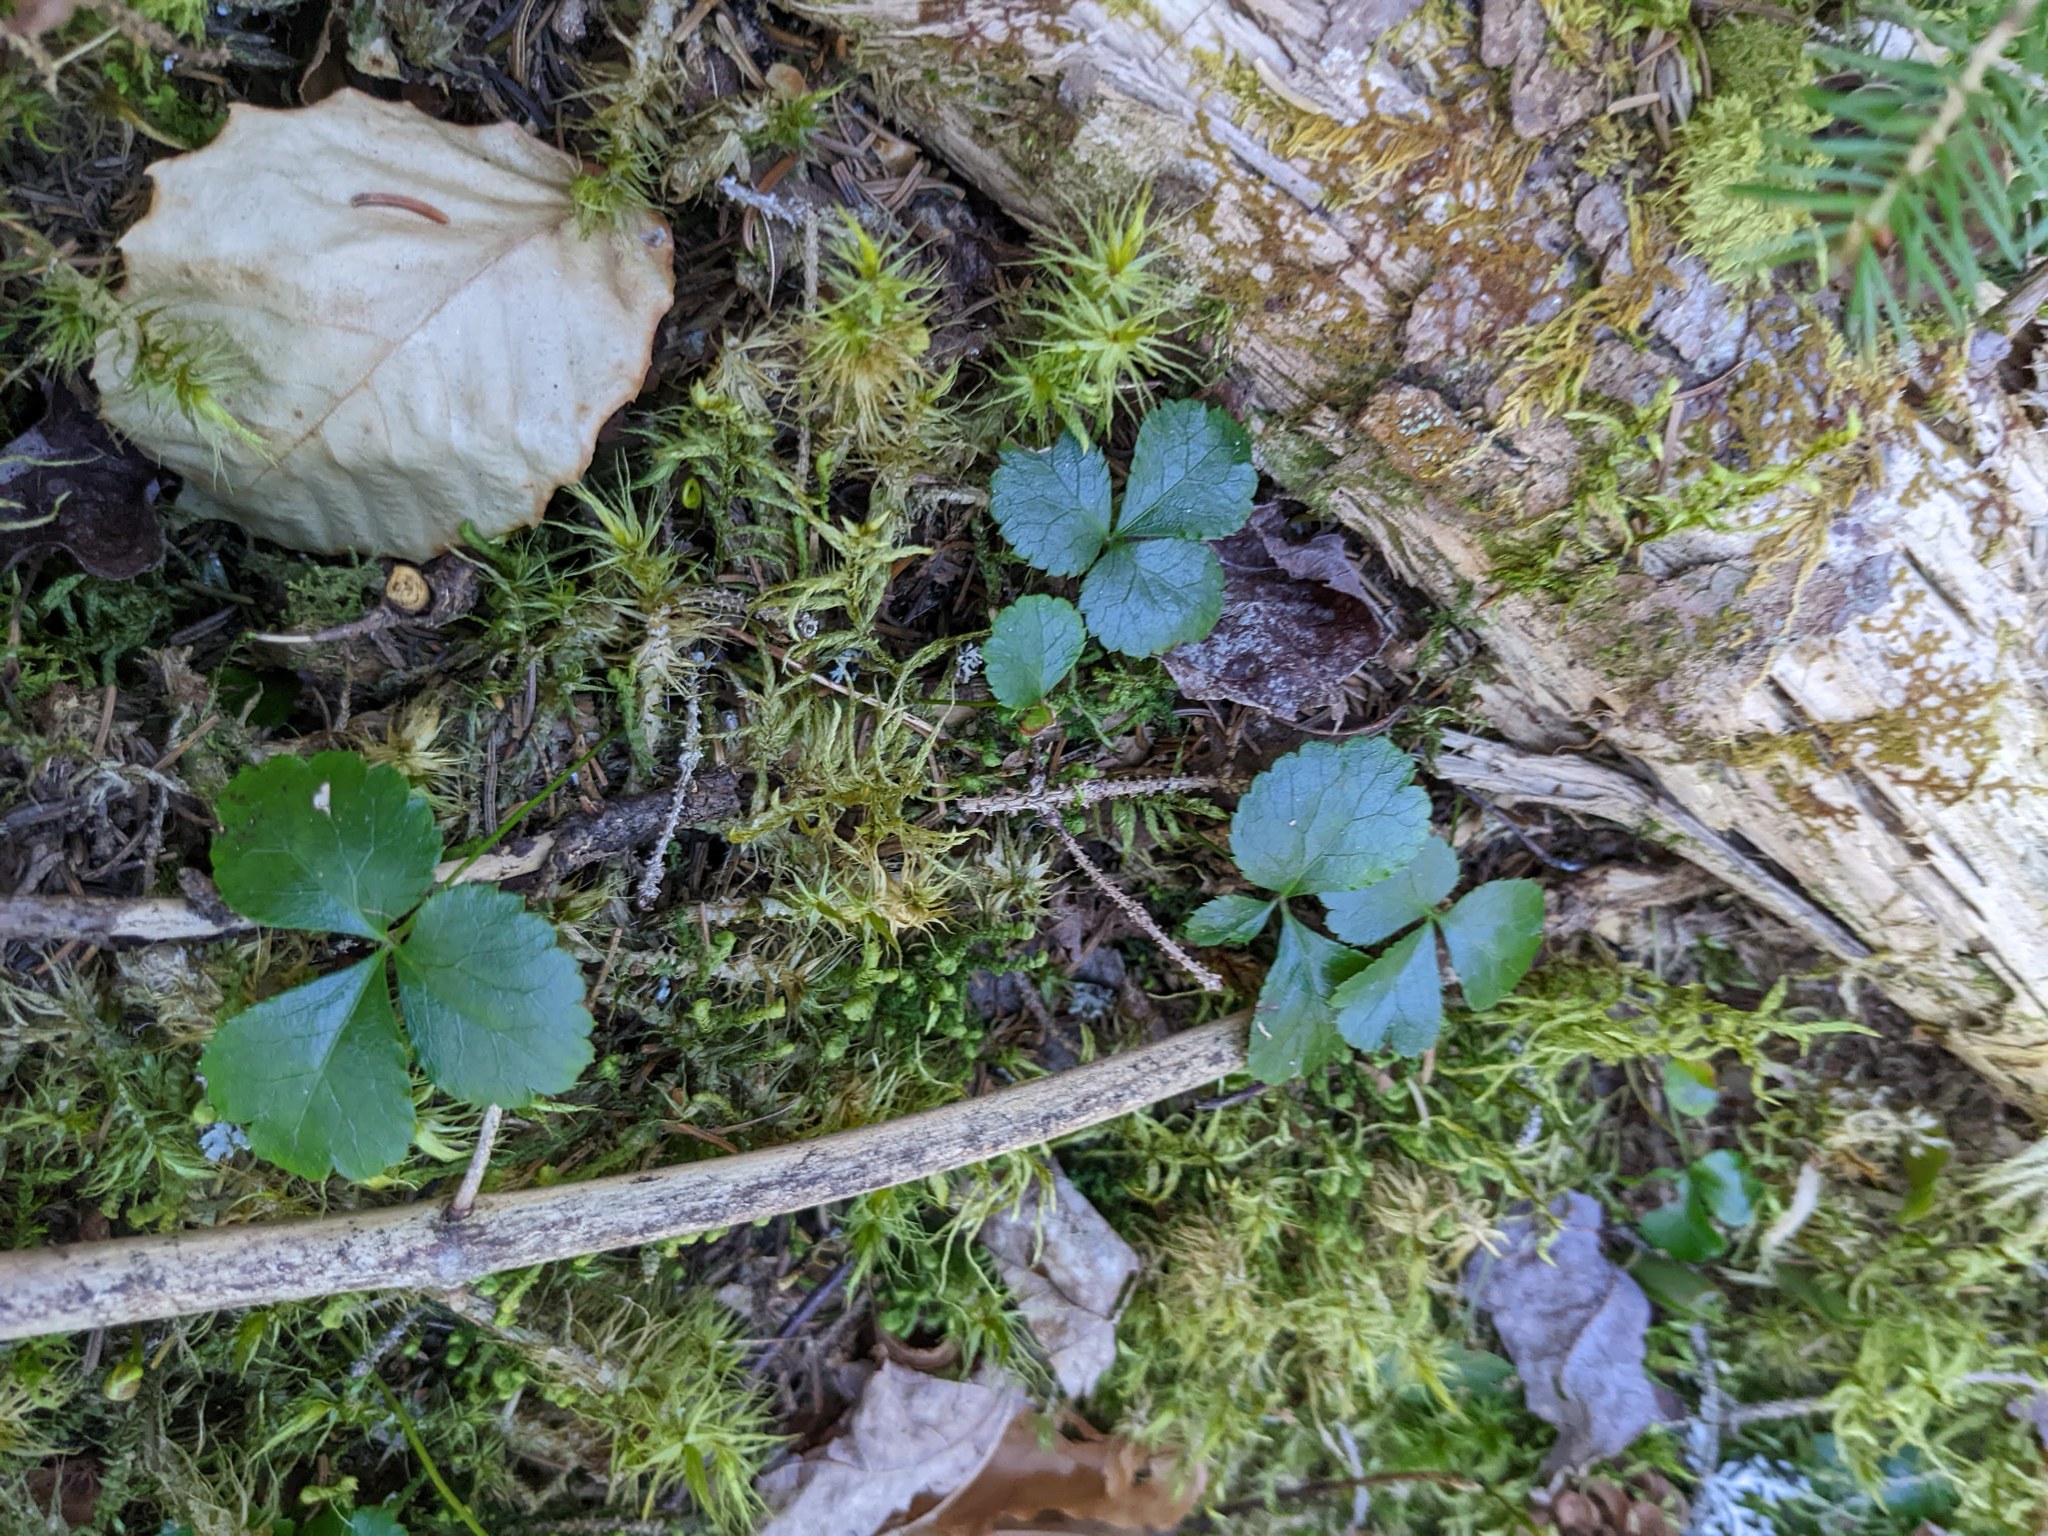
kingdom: Plantae
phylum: Tracheophyta
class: Magnoliopsida
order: Ranunculales
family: Ranunculaceae
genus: Coptis
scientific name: Coptis trifolia
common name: Canker-root
